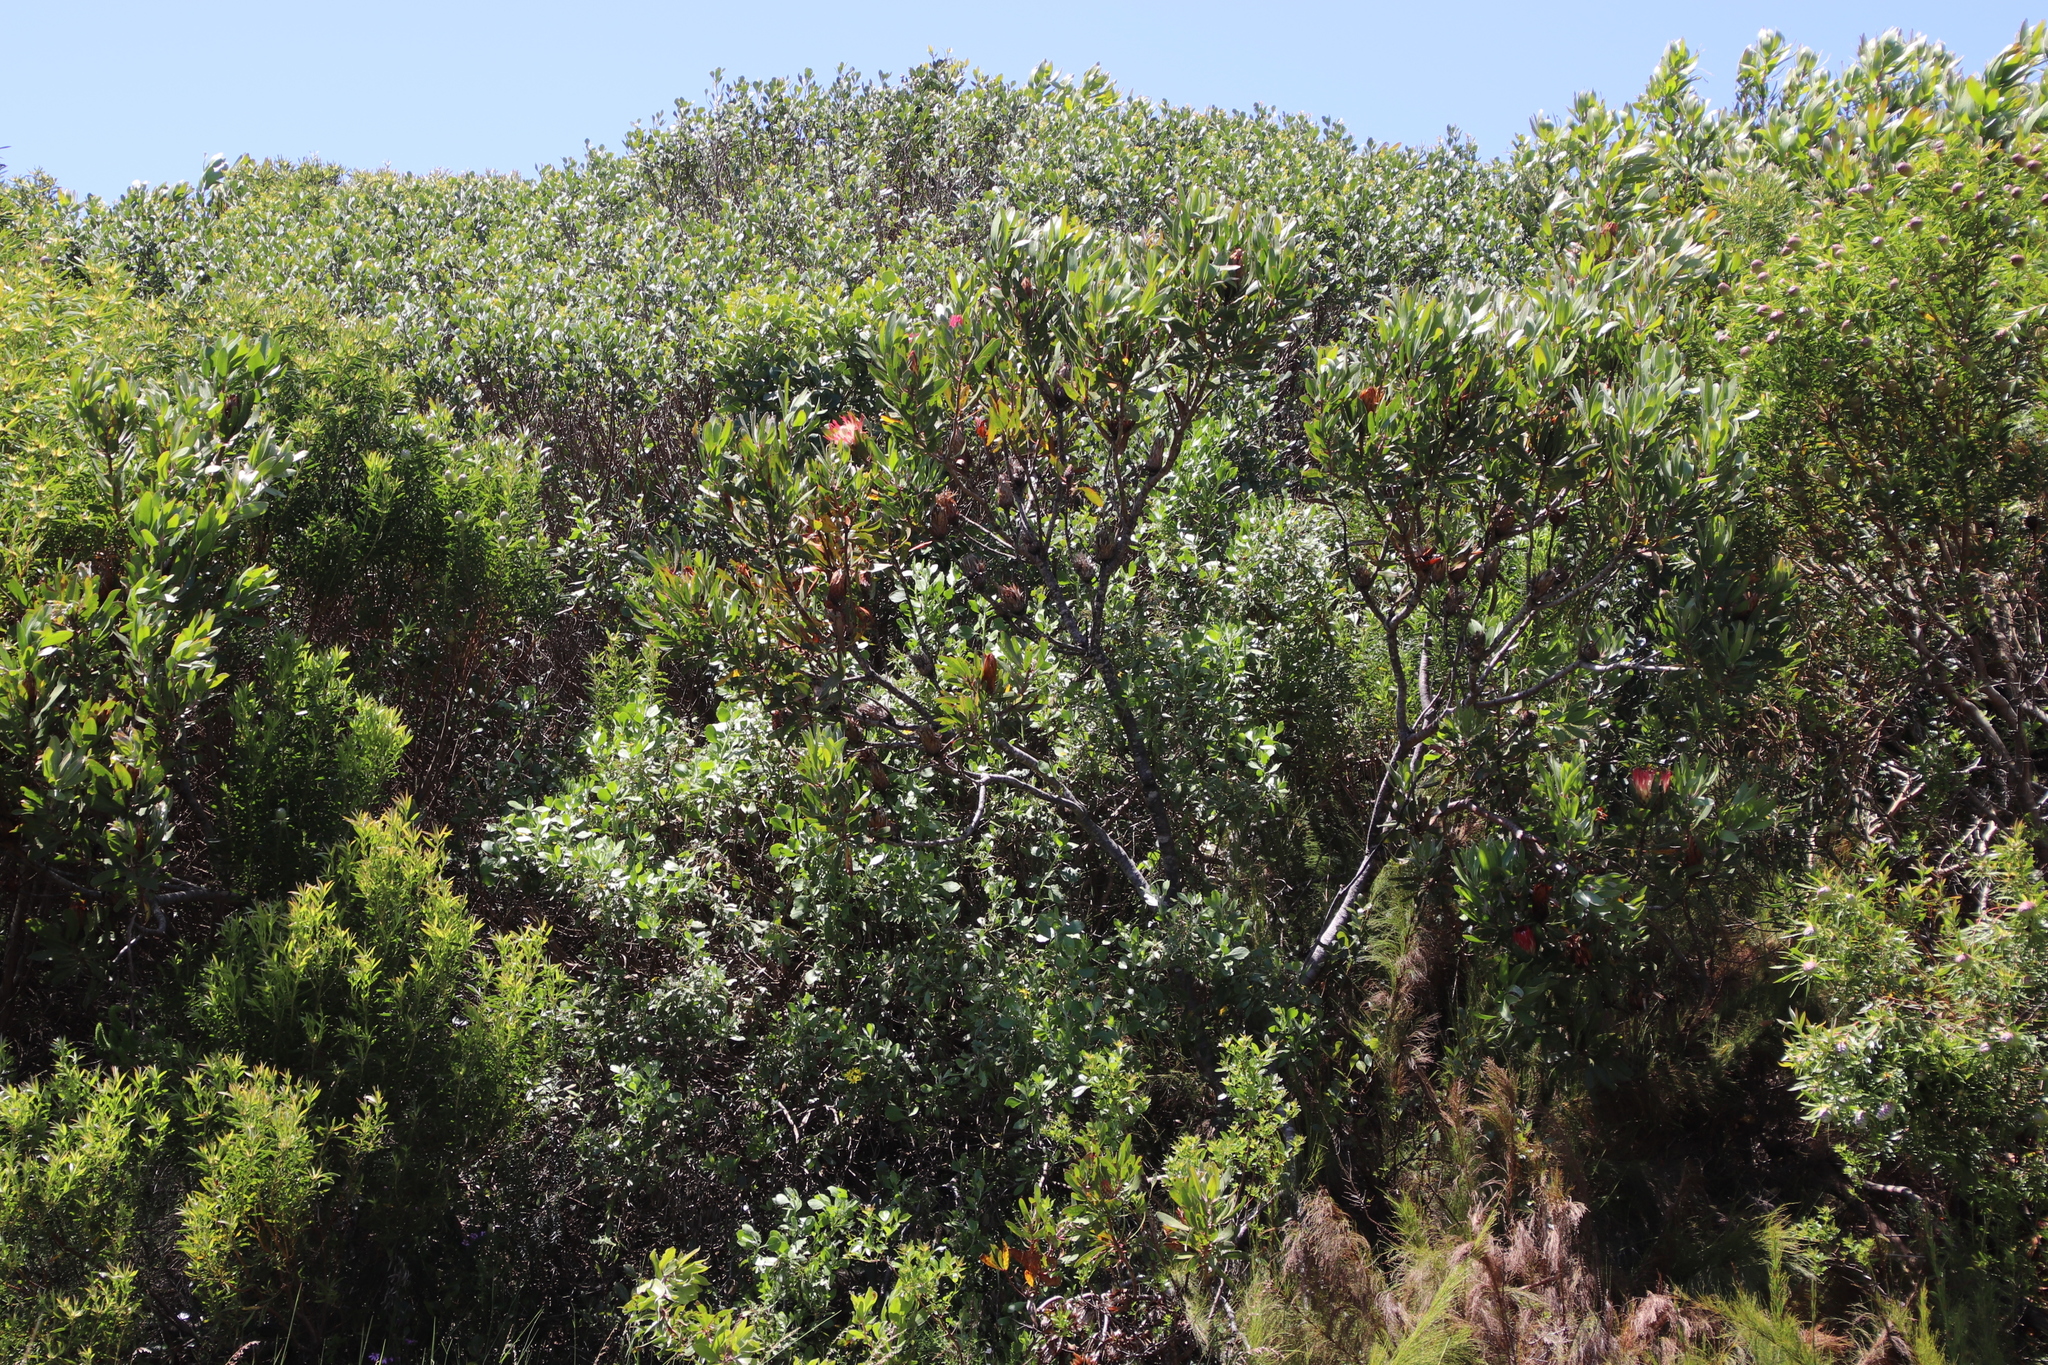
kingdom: Plantae
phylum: Tracheophyta
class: Magnoliopsida
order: Proteales
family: Proteaceae
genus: Protea
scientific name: Protea obtusifolia
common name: Bredasdorp sugarbush
